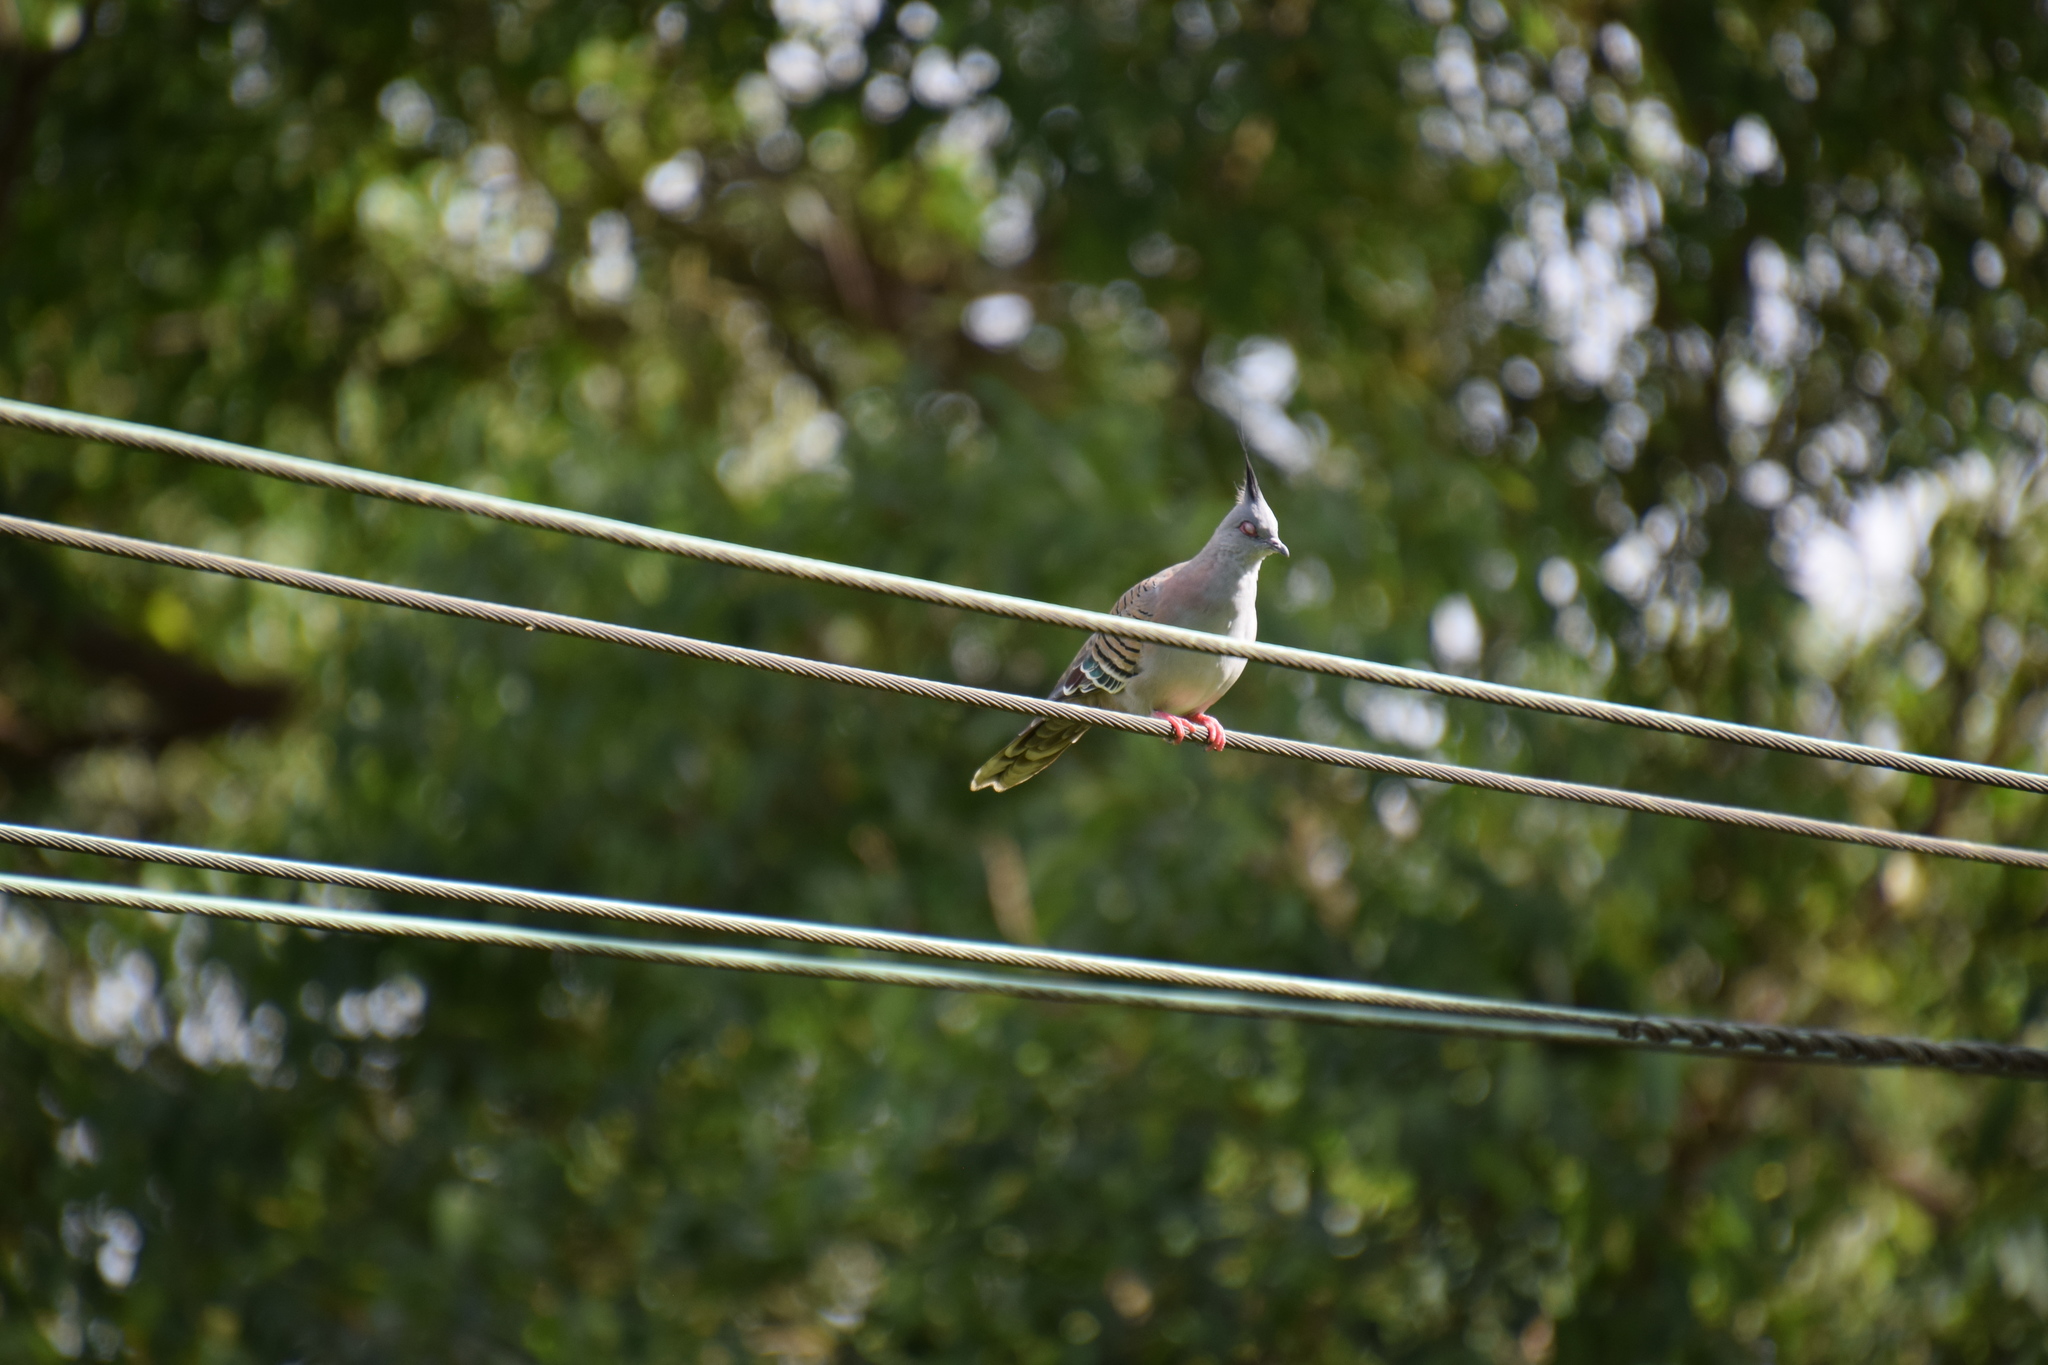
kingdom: Animalia
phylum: Chordata
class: Aves
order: Columbiformes
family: Columbidae
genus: Ocyphaps
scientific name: Ocyphaps lophotes
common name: Crested pigeon
